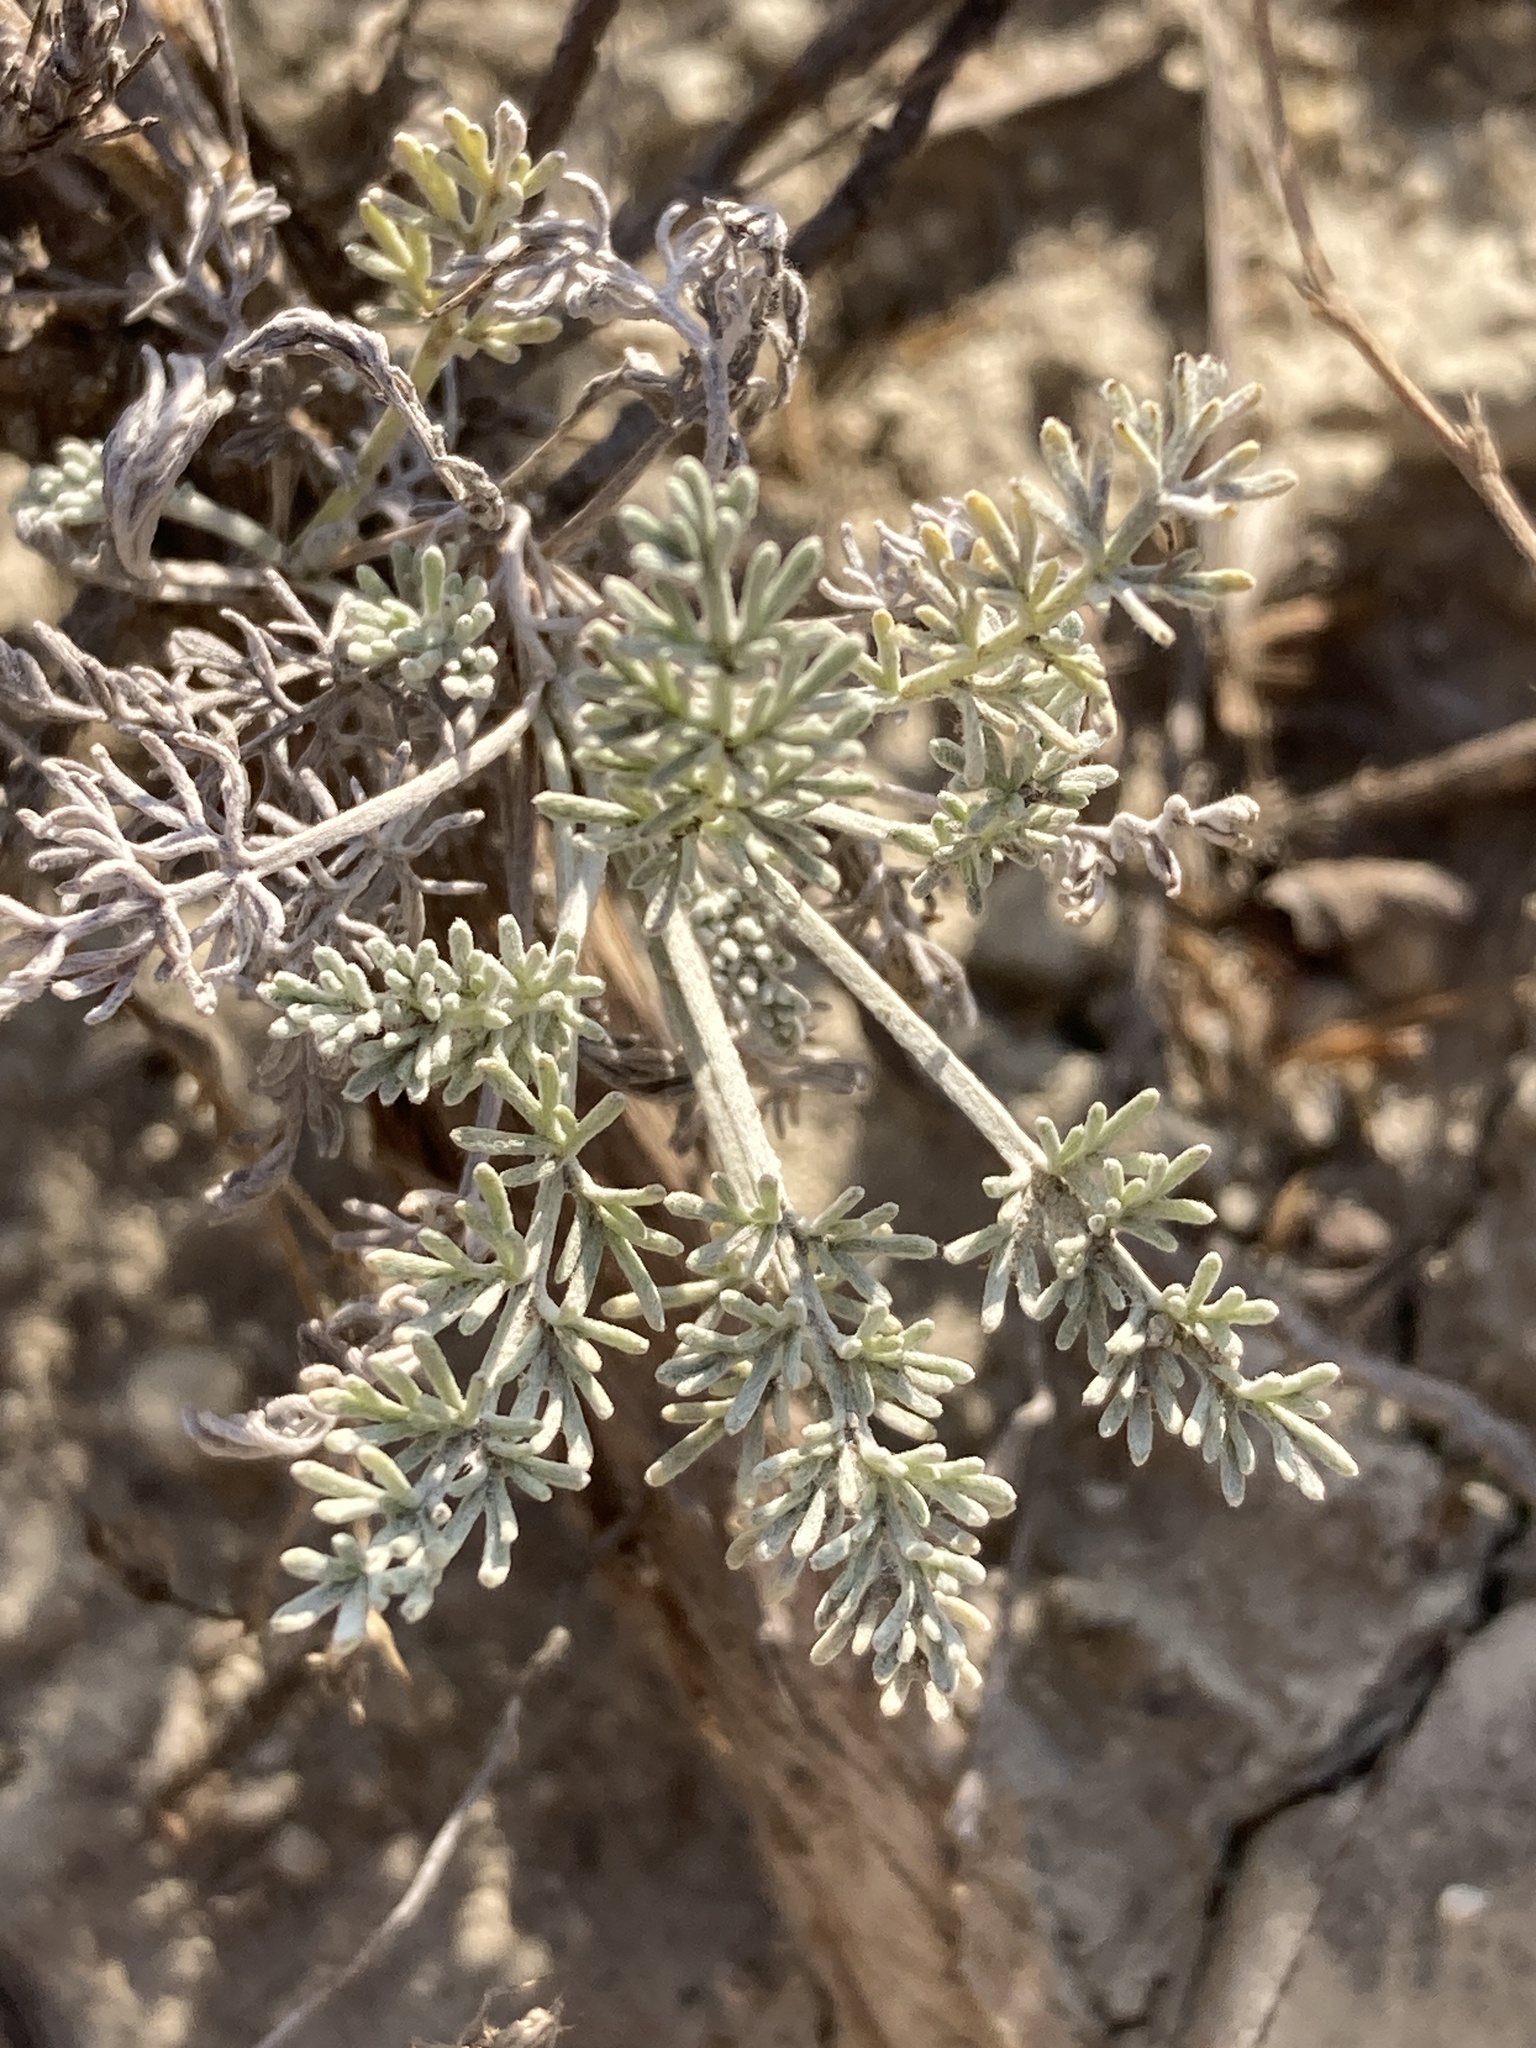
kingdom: Plantae
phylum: Tracheophyta
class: Magnoliopsida
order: Asterales
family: Asteraceae
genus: Artemisia
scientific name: Artemisia santonicum
